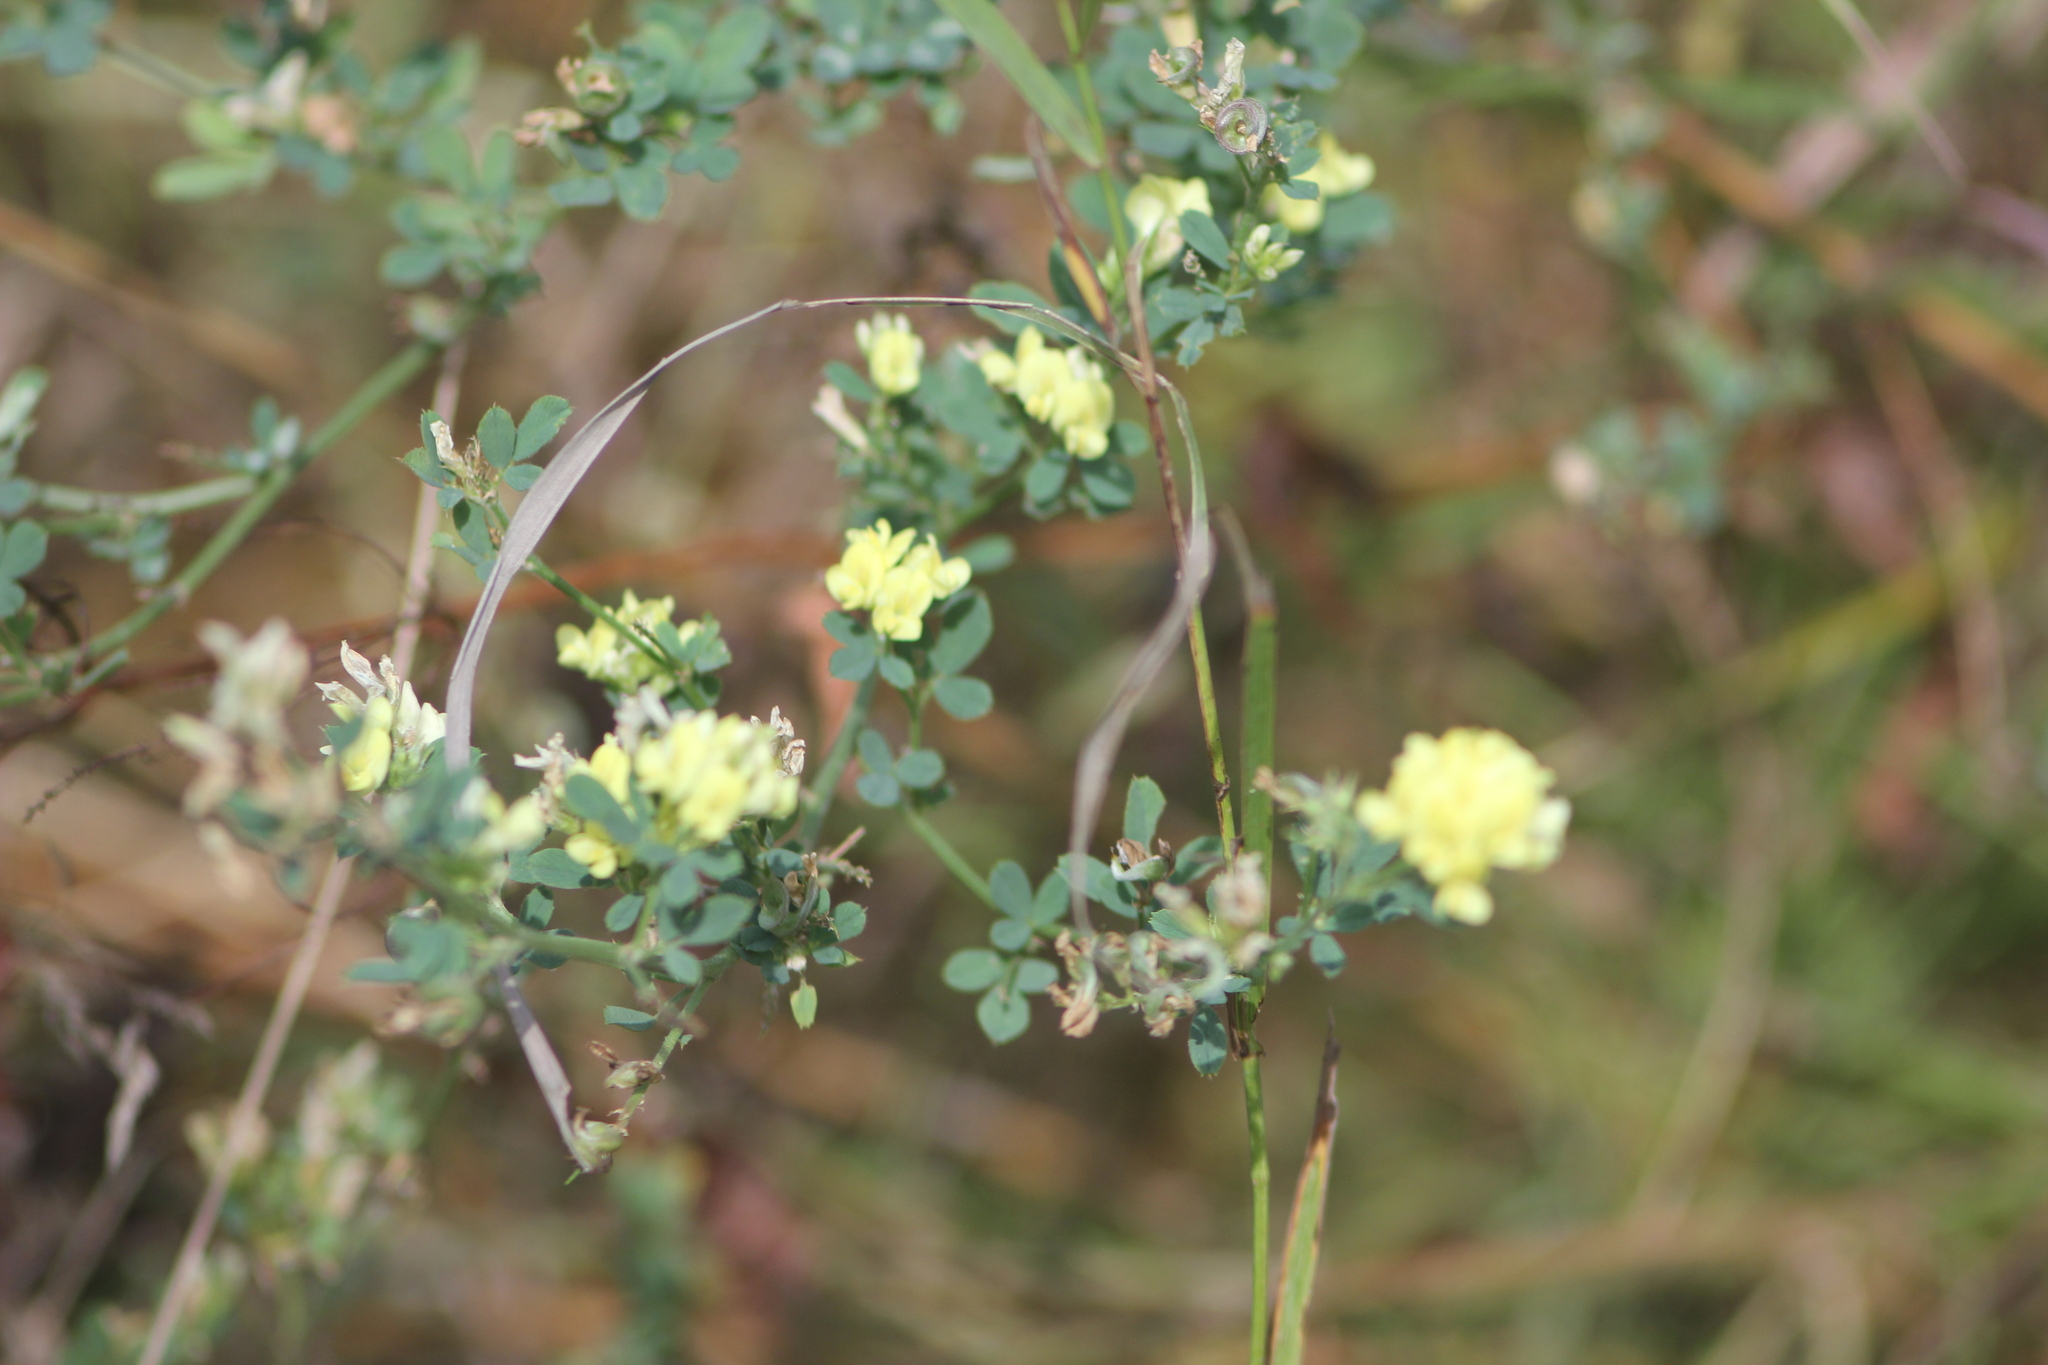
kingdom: Plantae
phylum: Tracheophyta
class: Magnoliopsida
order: Fabales
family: Fabaceae
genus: Medicago
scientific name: Medicago varia
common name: Sand lucerne
